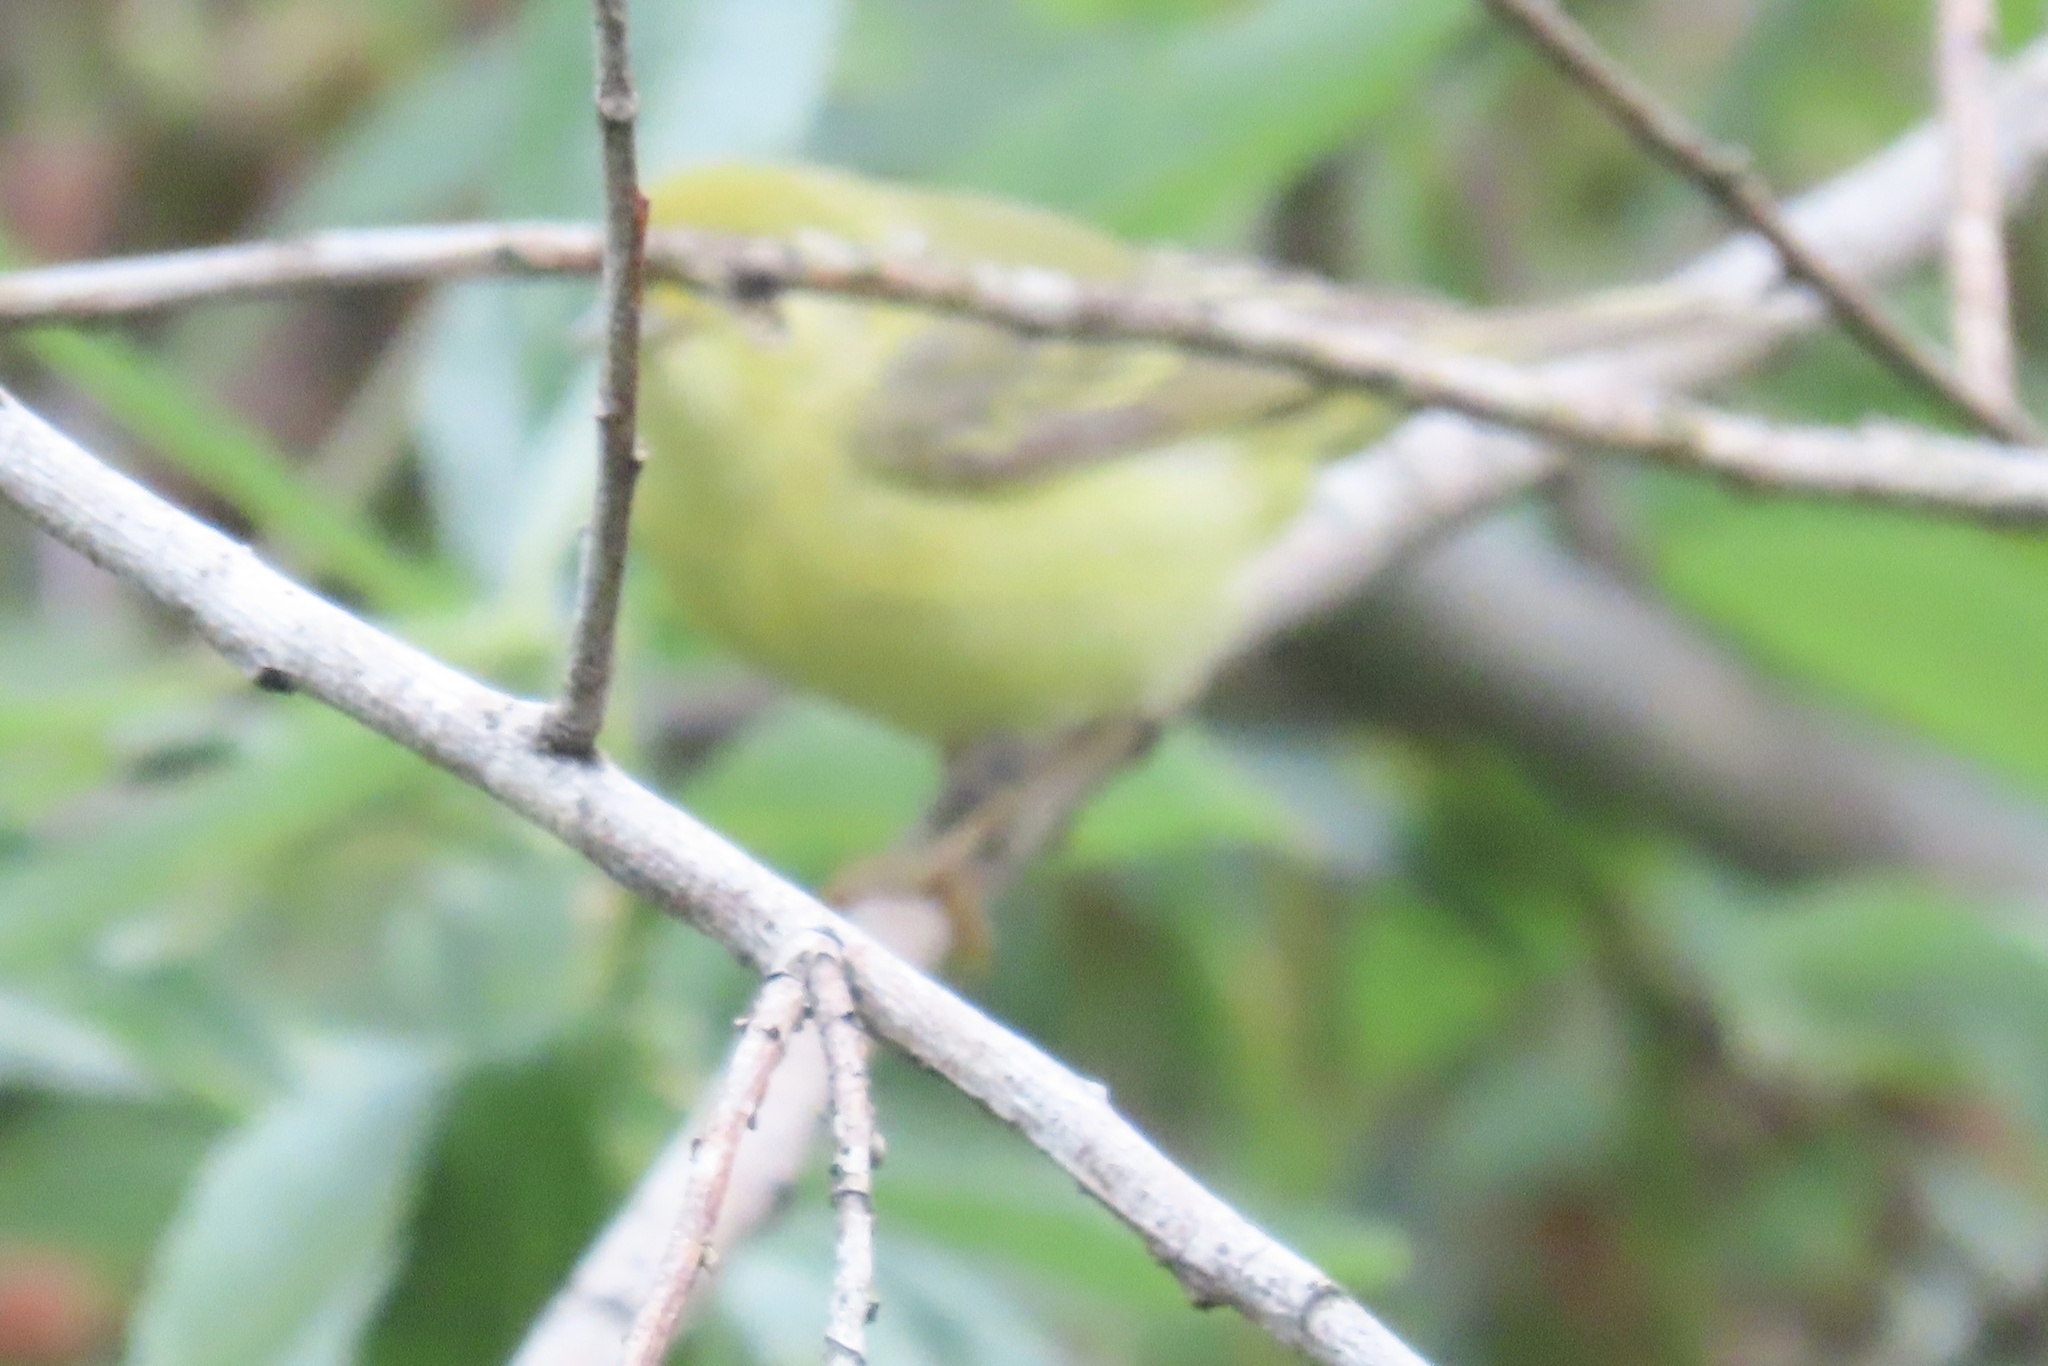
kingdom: Animalia
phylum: Chordata
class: Aves
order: Passeriformes
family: Parulidae
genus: Setophaga
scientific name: Setophaga petechia
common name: Yellow warbler
